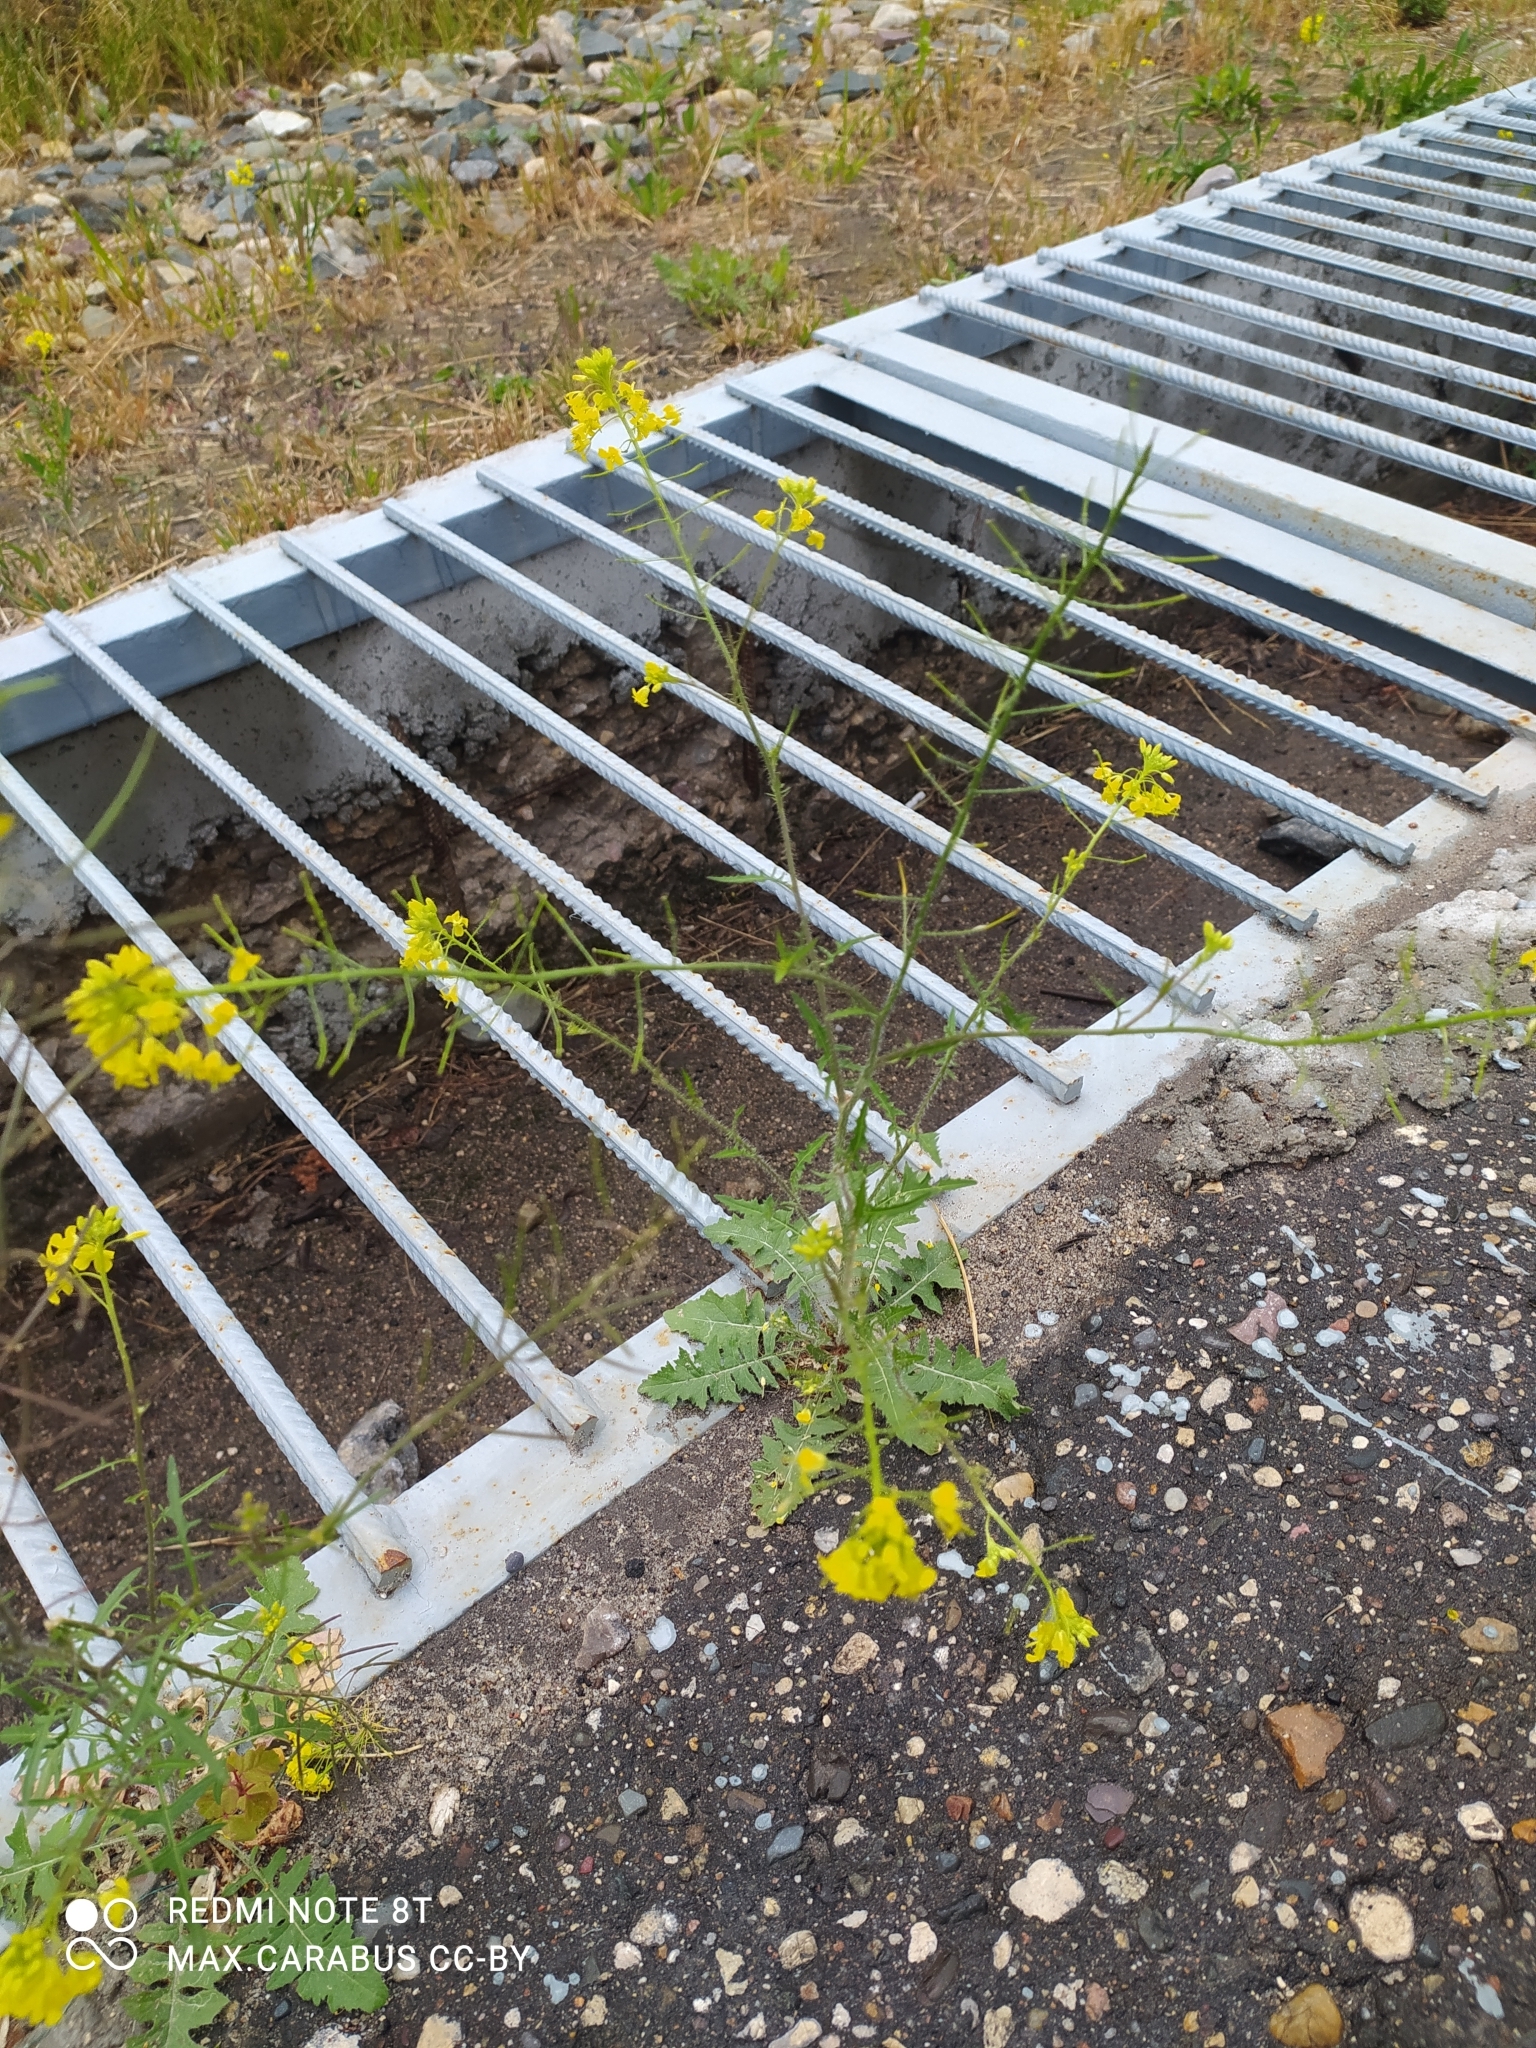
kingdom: Plantae
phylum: Tracheophyta
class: Magnoliopsida
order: Brassicales
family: Brassicaceae
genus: Sisymbrium
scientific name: Sisymbrium loeselii
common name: False london-rocket
